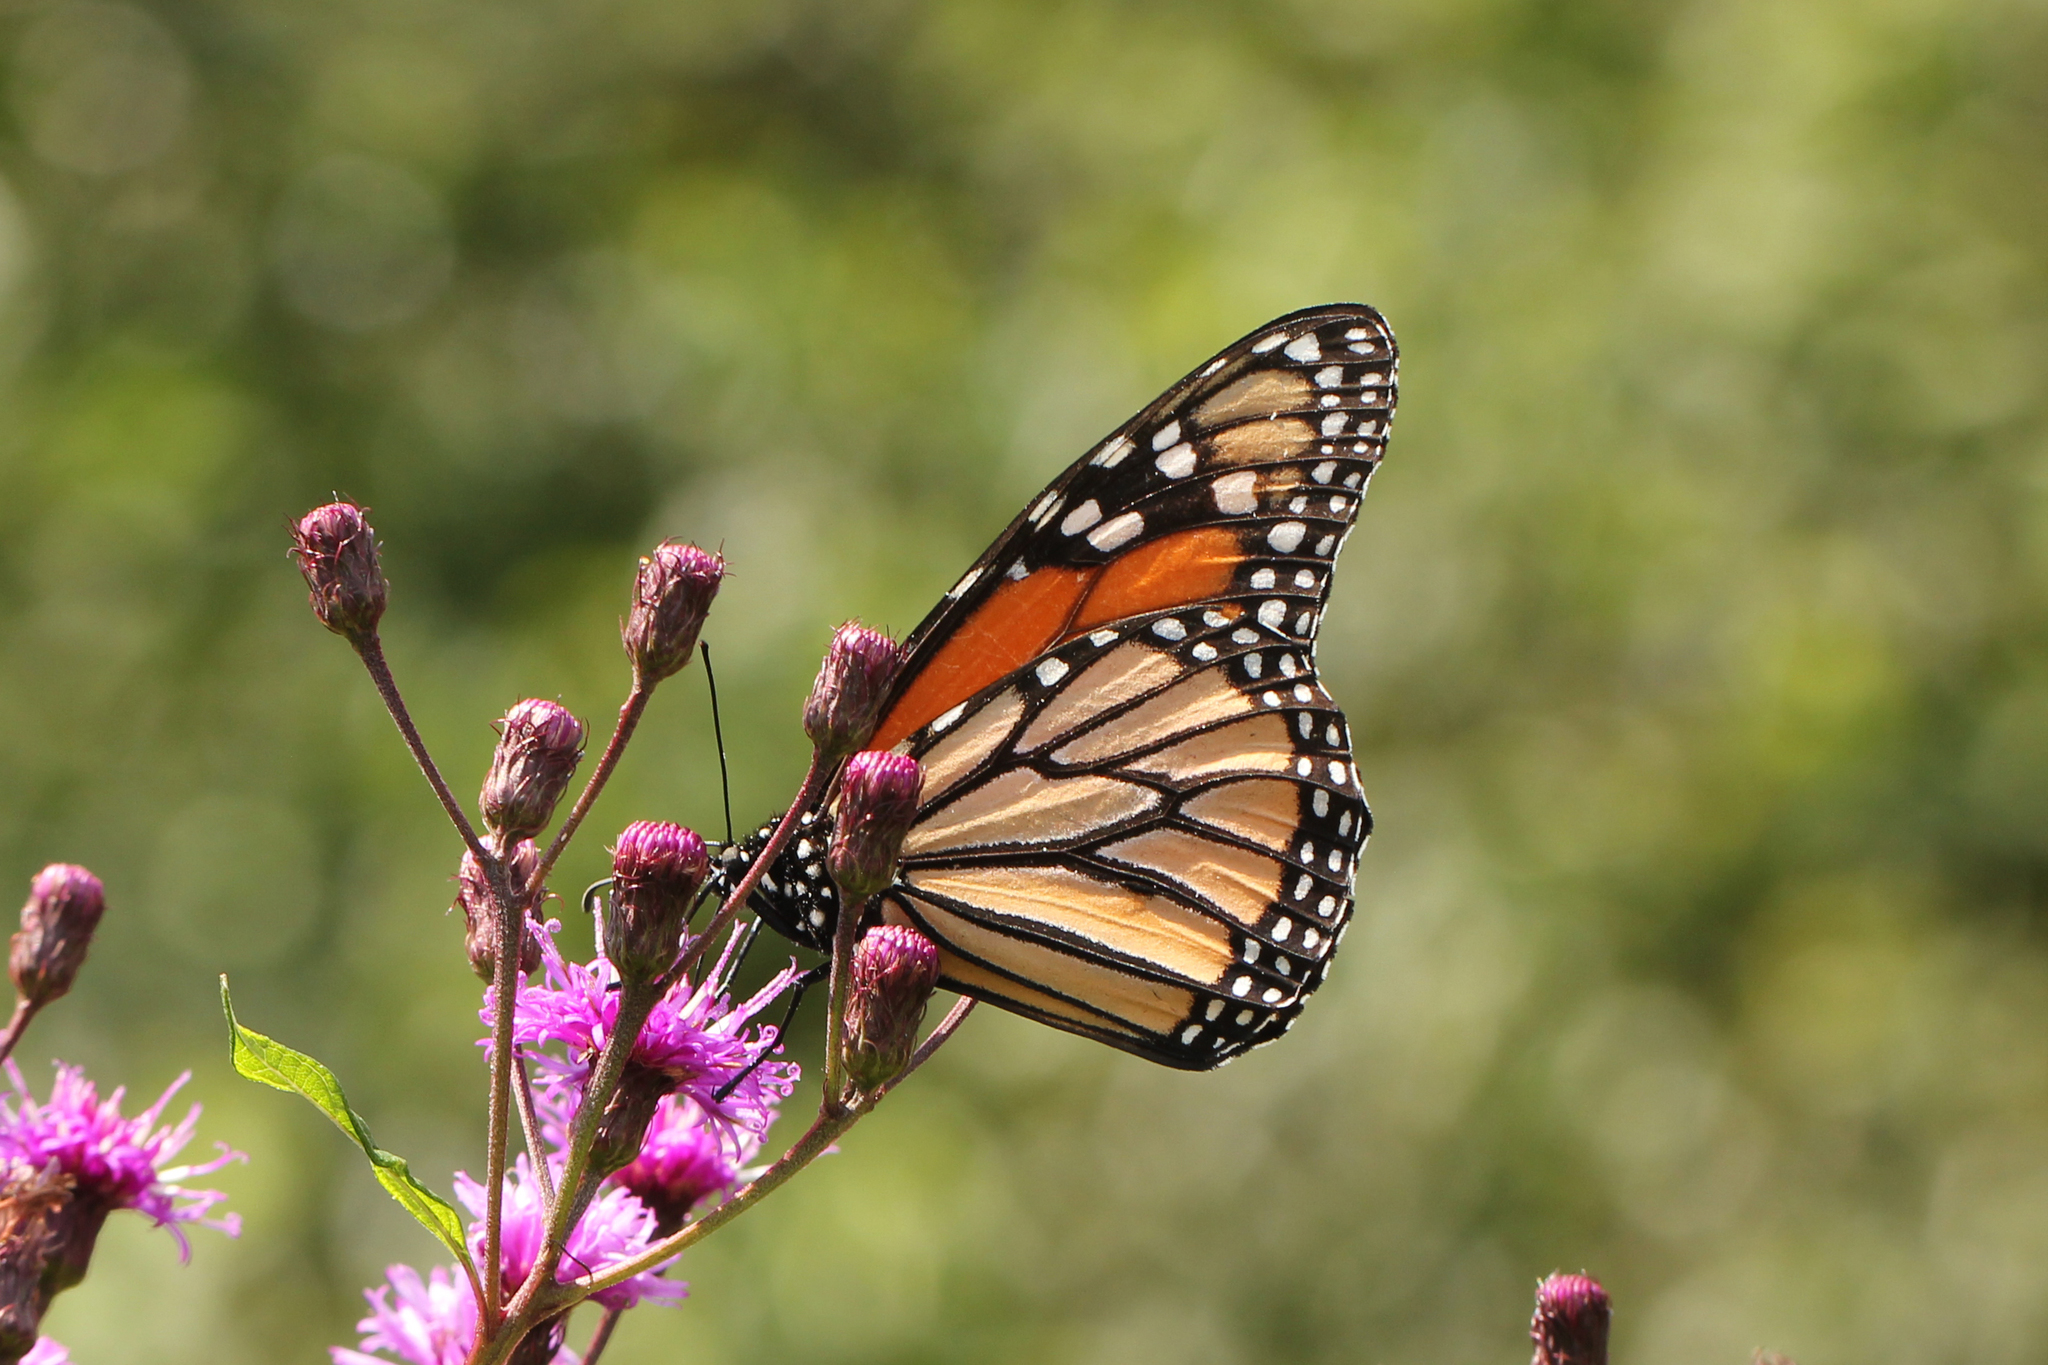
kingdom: Animalia
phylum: Arthropoda
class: Insecta
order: Lepidoptera
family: Nymphalidae
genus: Danaus
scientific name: Danaus plexippus
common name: Monarch
